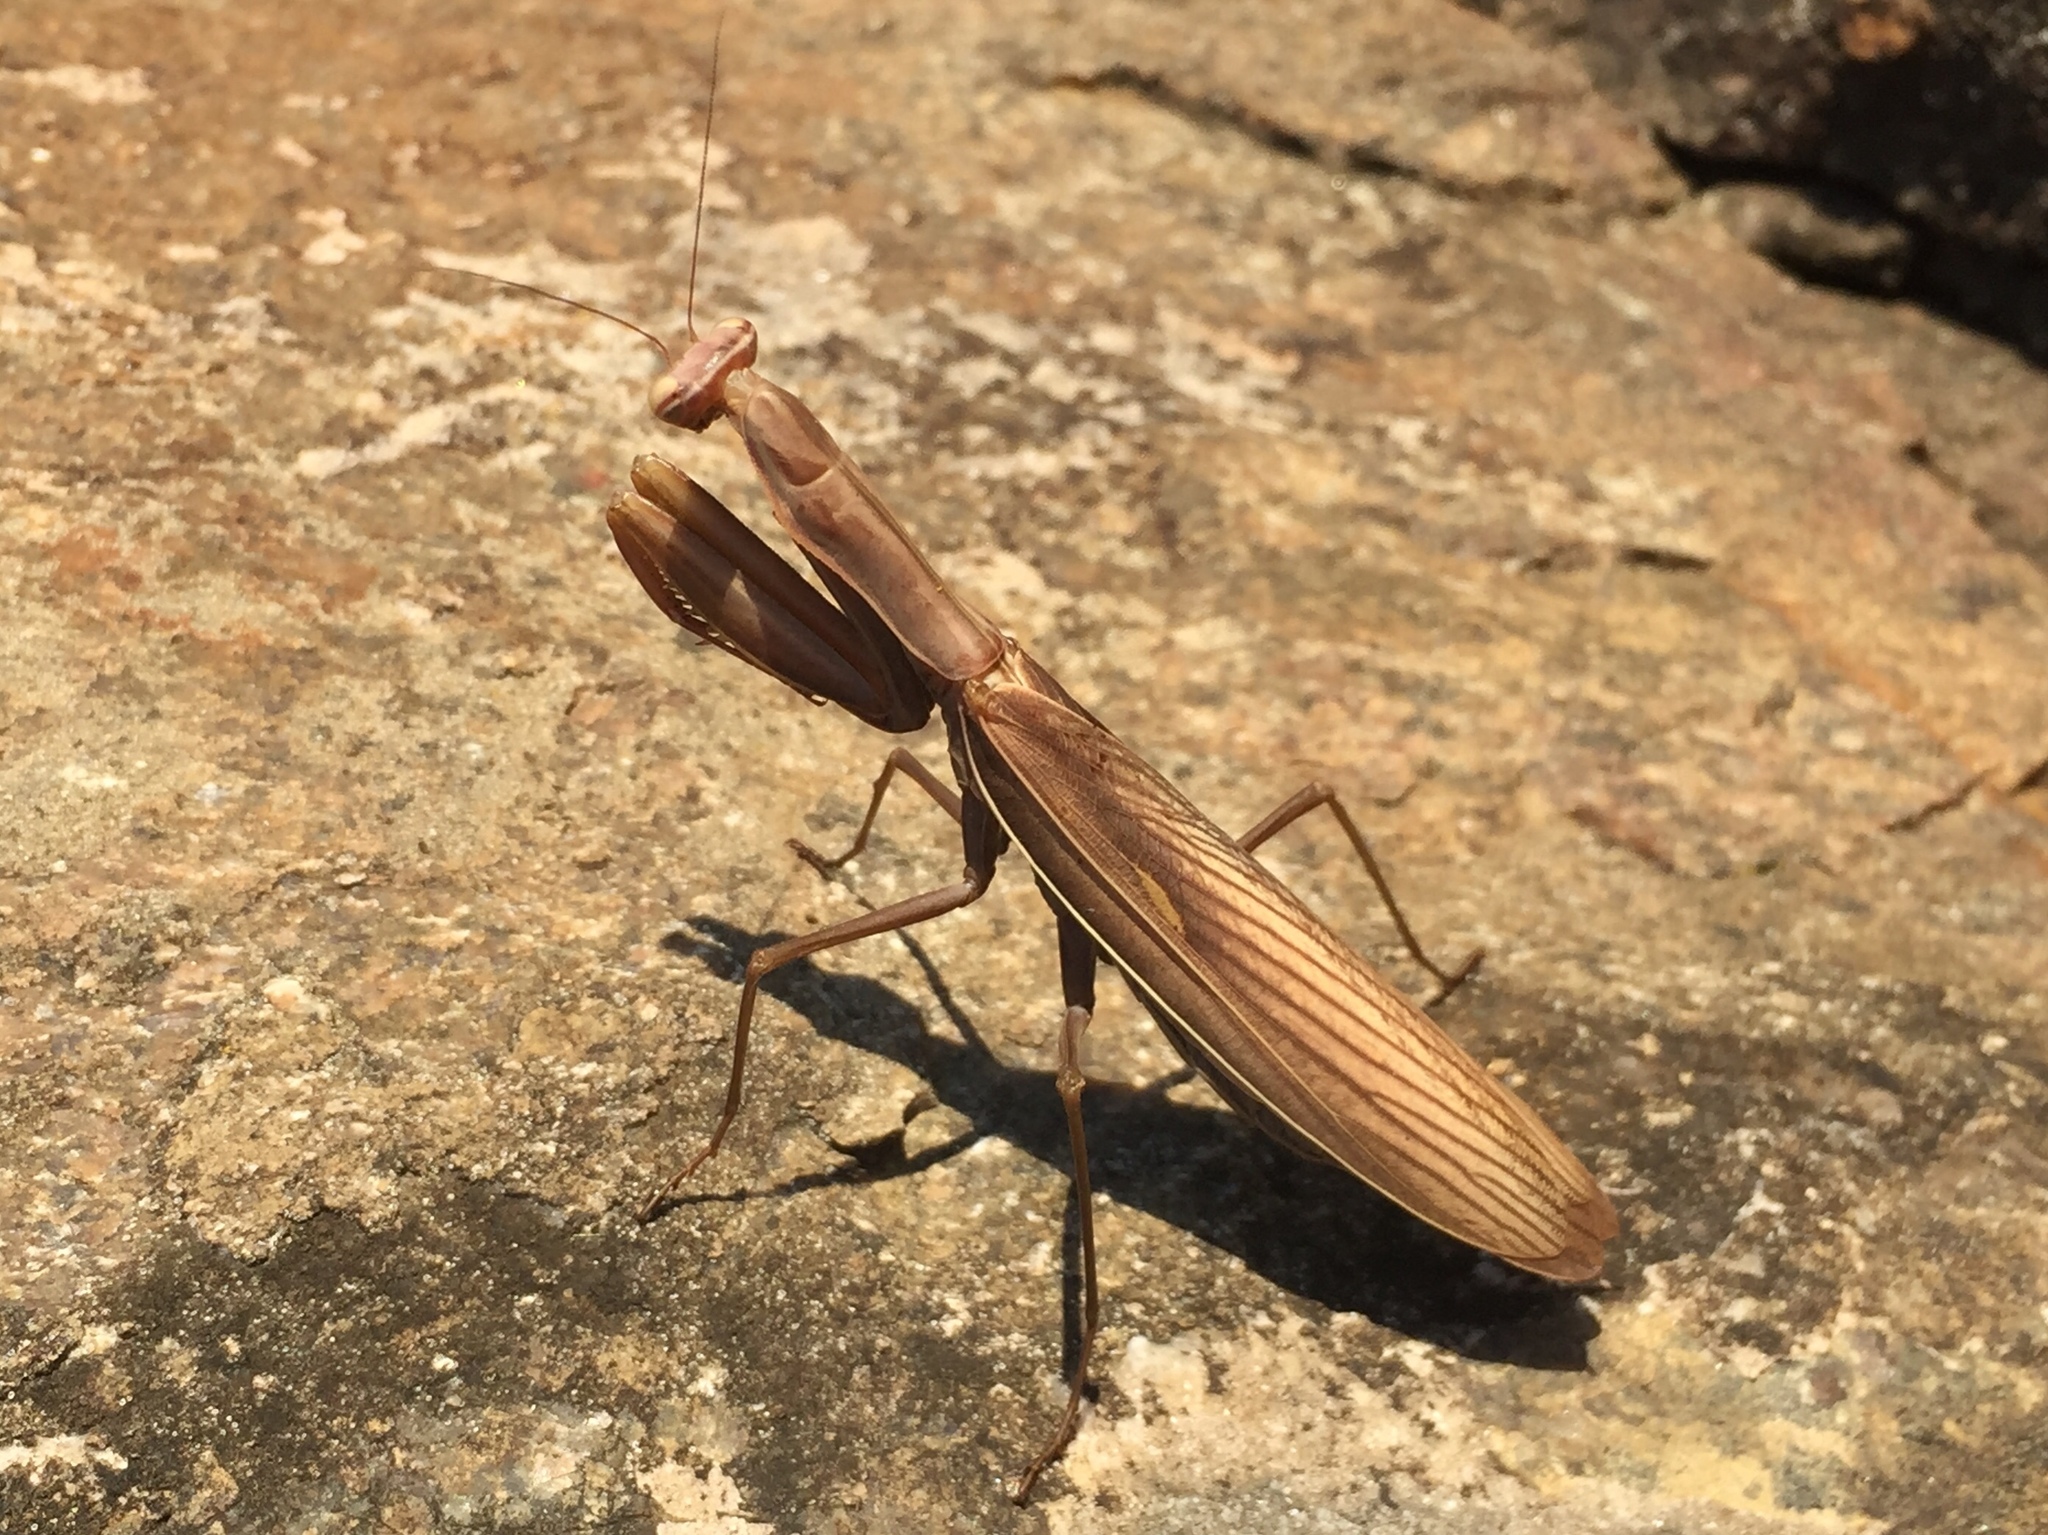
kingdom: Animalia
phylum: Arthropoda
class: Insecta
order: Mantodea
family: Mantidae
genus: Mantis
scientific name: Mantis religiosa
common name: Praying mantis
